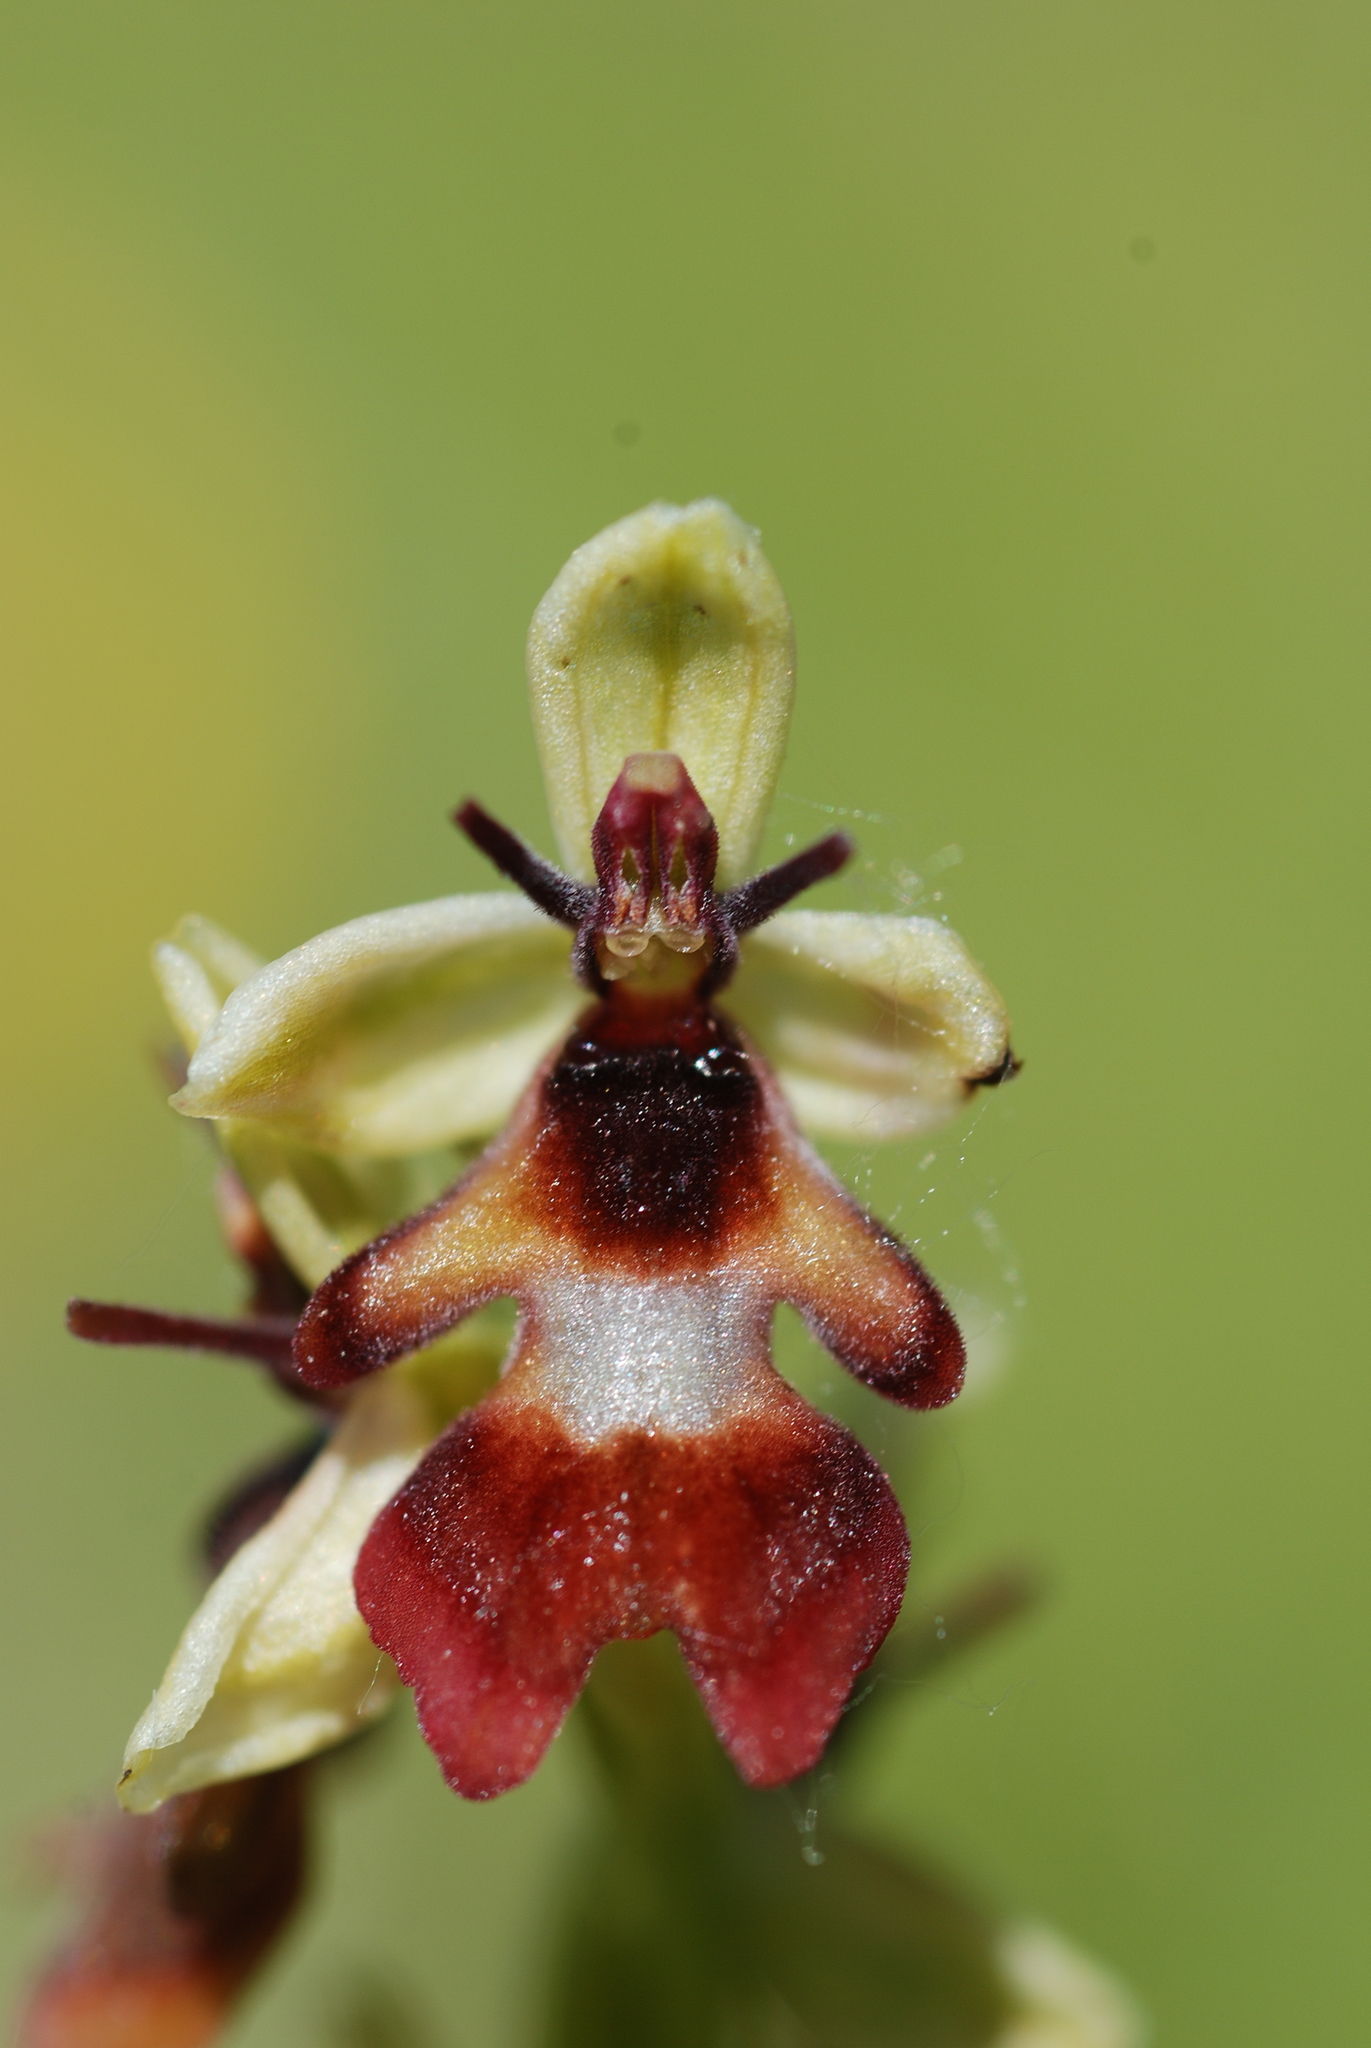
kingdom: Plantae
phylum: Tracheophyta
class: Liliopsida
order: Asparagales
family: Orchidaceae
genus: Ophrys
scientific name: Ophrys insectifera
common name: Fly orchid
